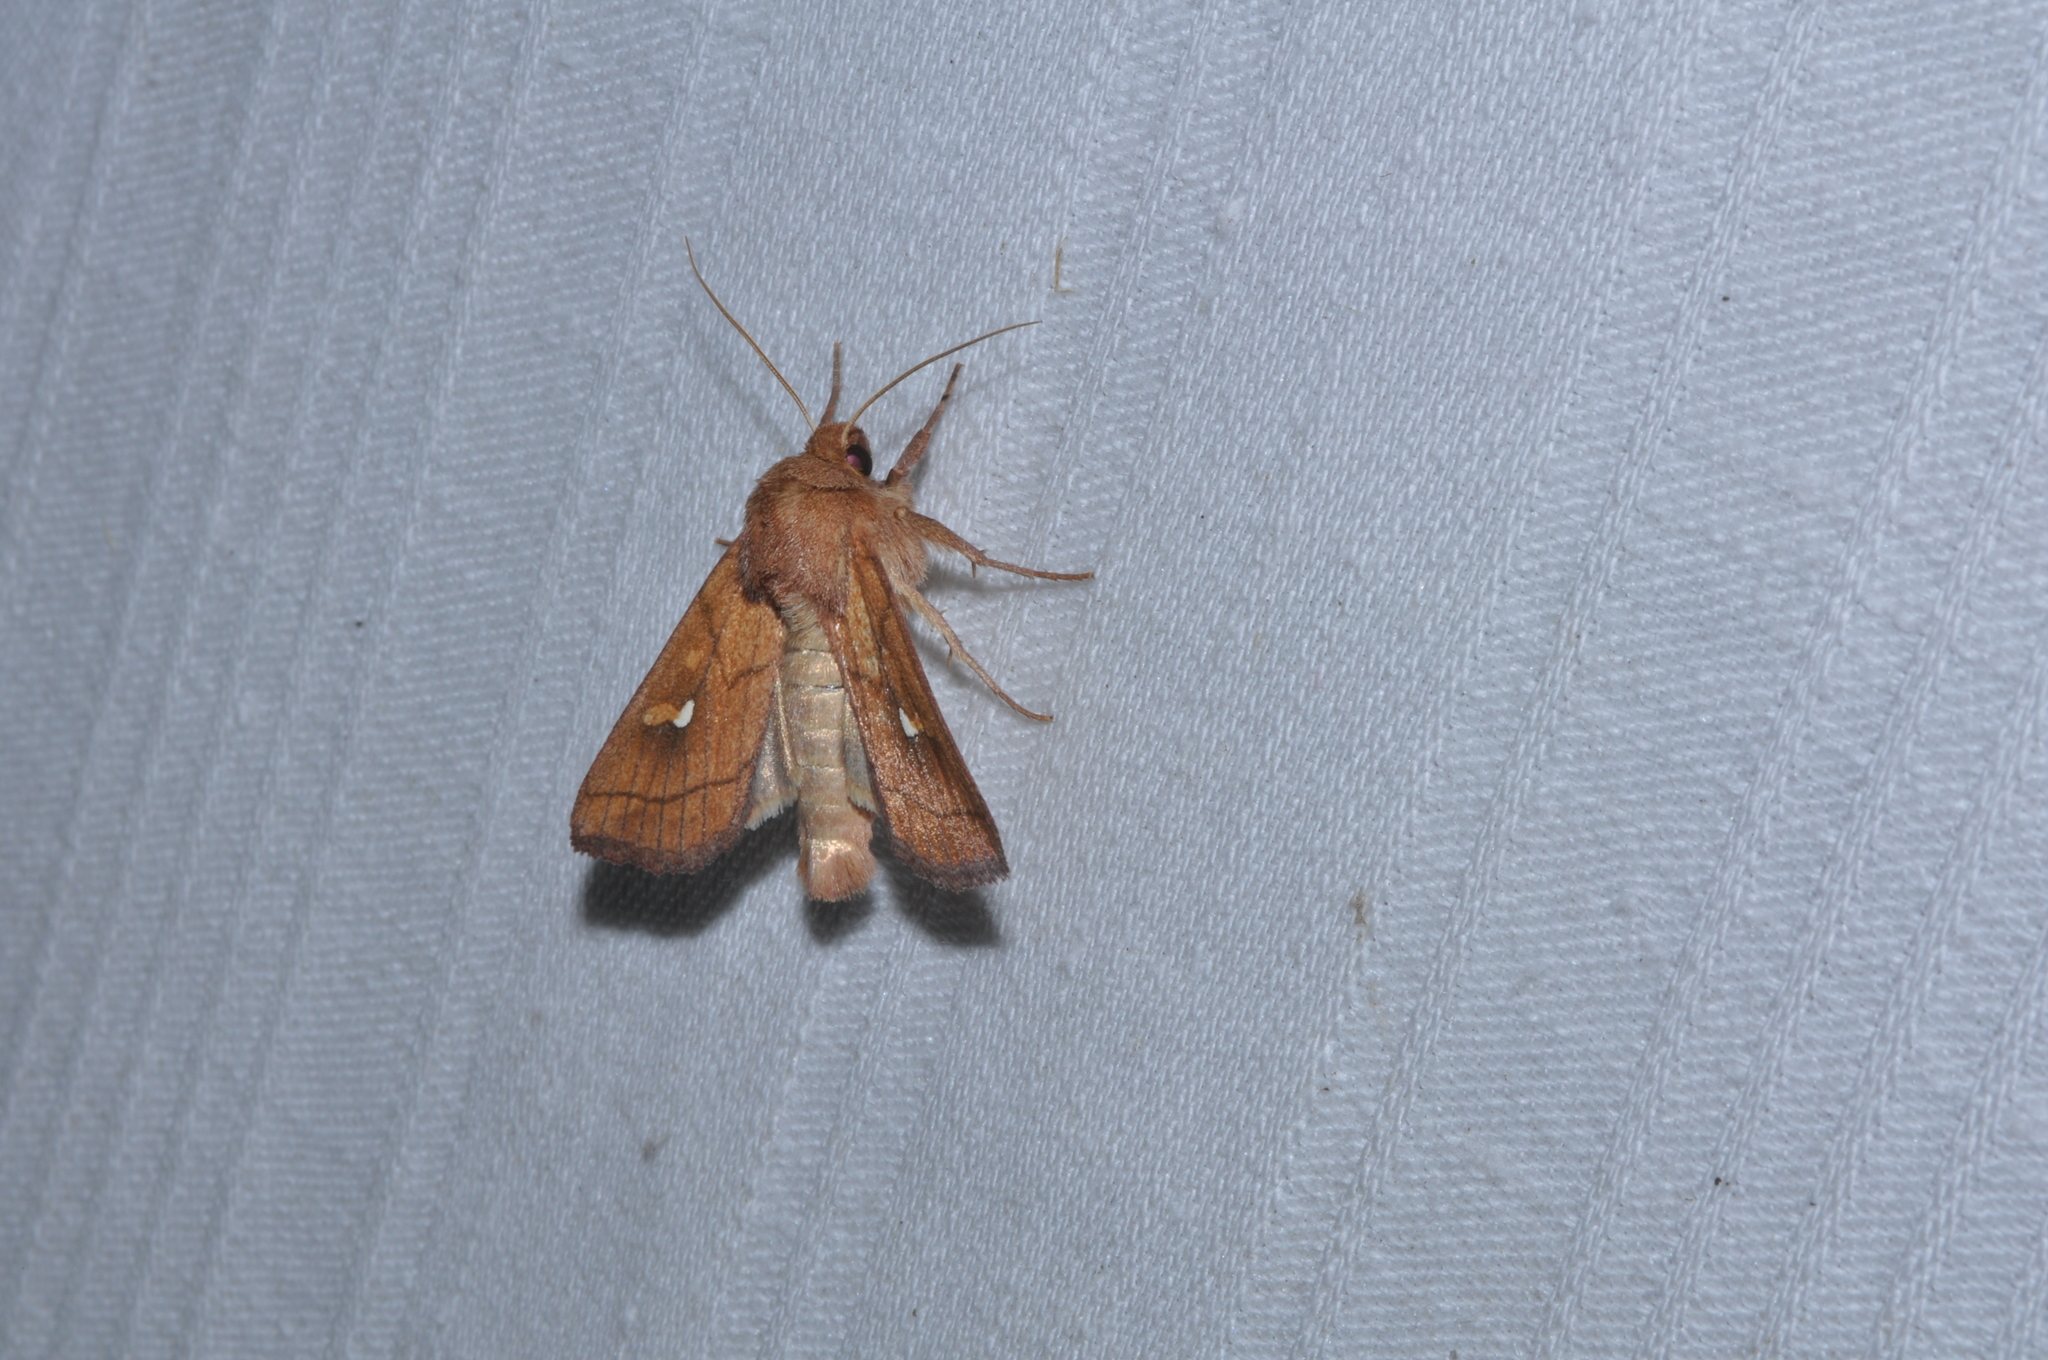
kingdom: Animalia
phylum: Arthropoda
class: Insecta
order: Lepidoptera
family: Noctuidae
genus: Mythimna
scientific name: Mythimna conigera
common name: Brown-line bright-eye
